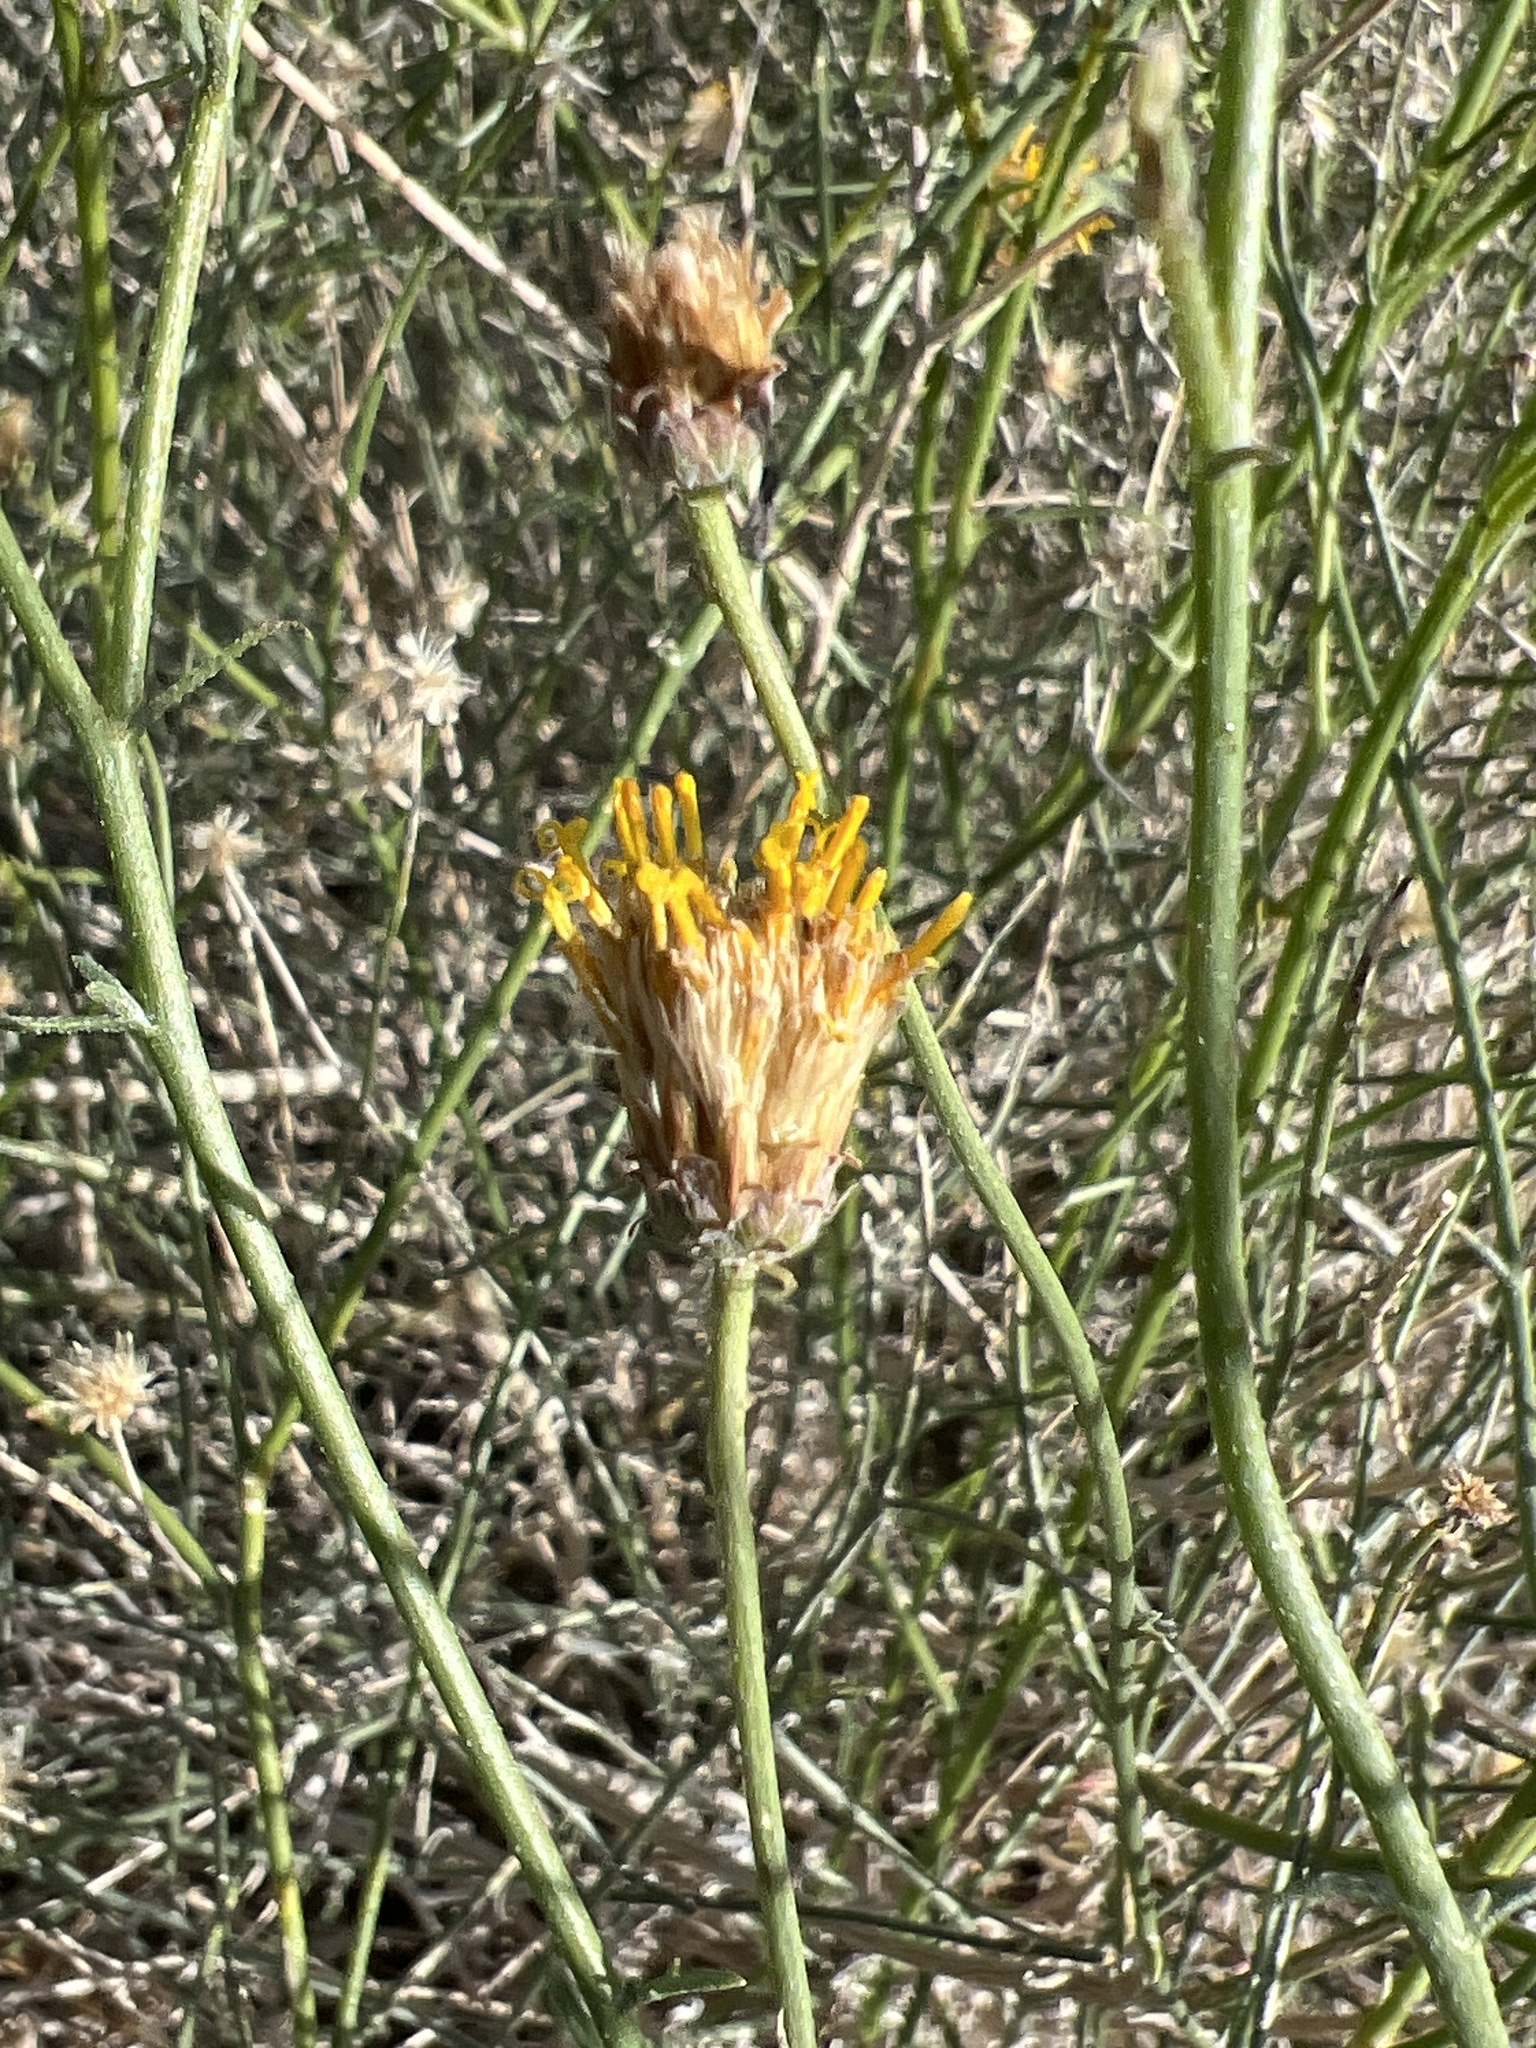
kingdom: Plantae
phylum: Tracheophyta
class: Magnoliopsida
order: Asterales
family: Asteraceae
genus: Bebbia
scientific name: Bebbia juncea
